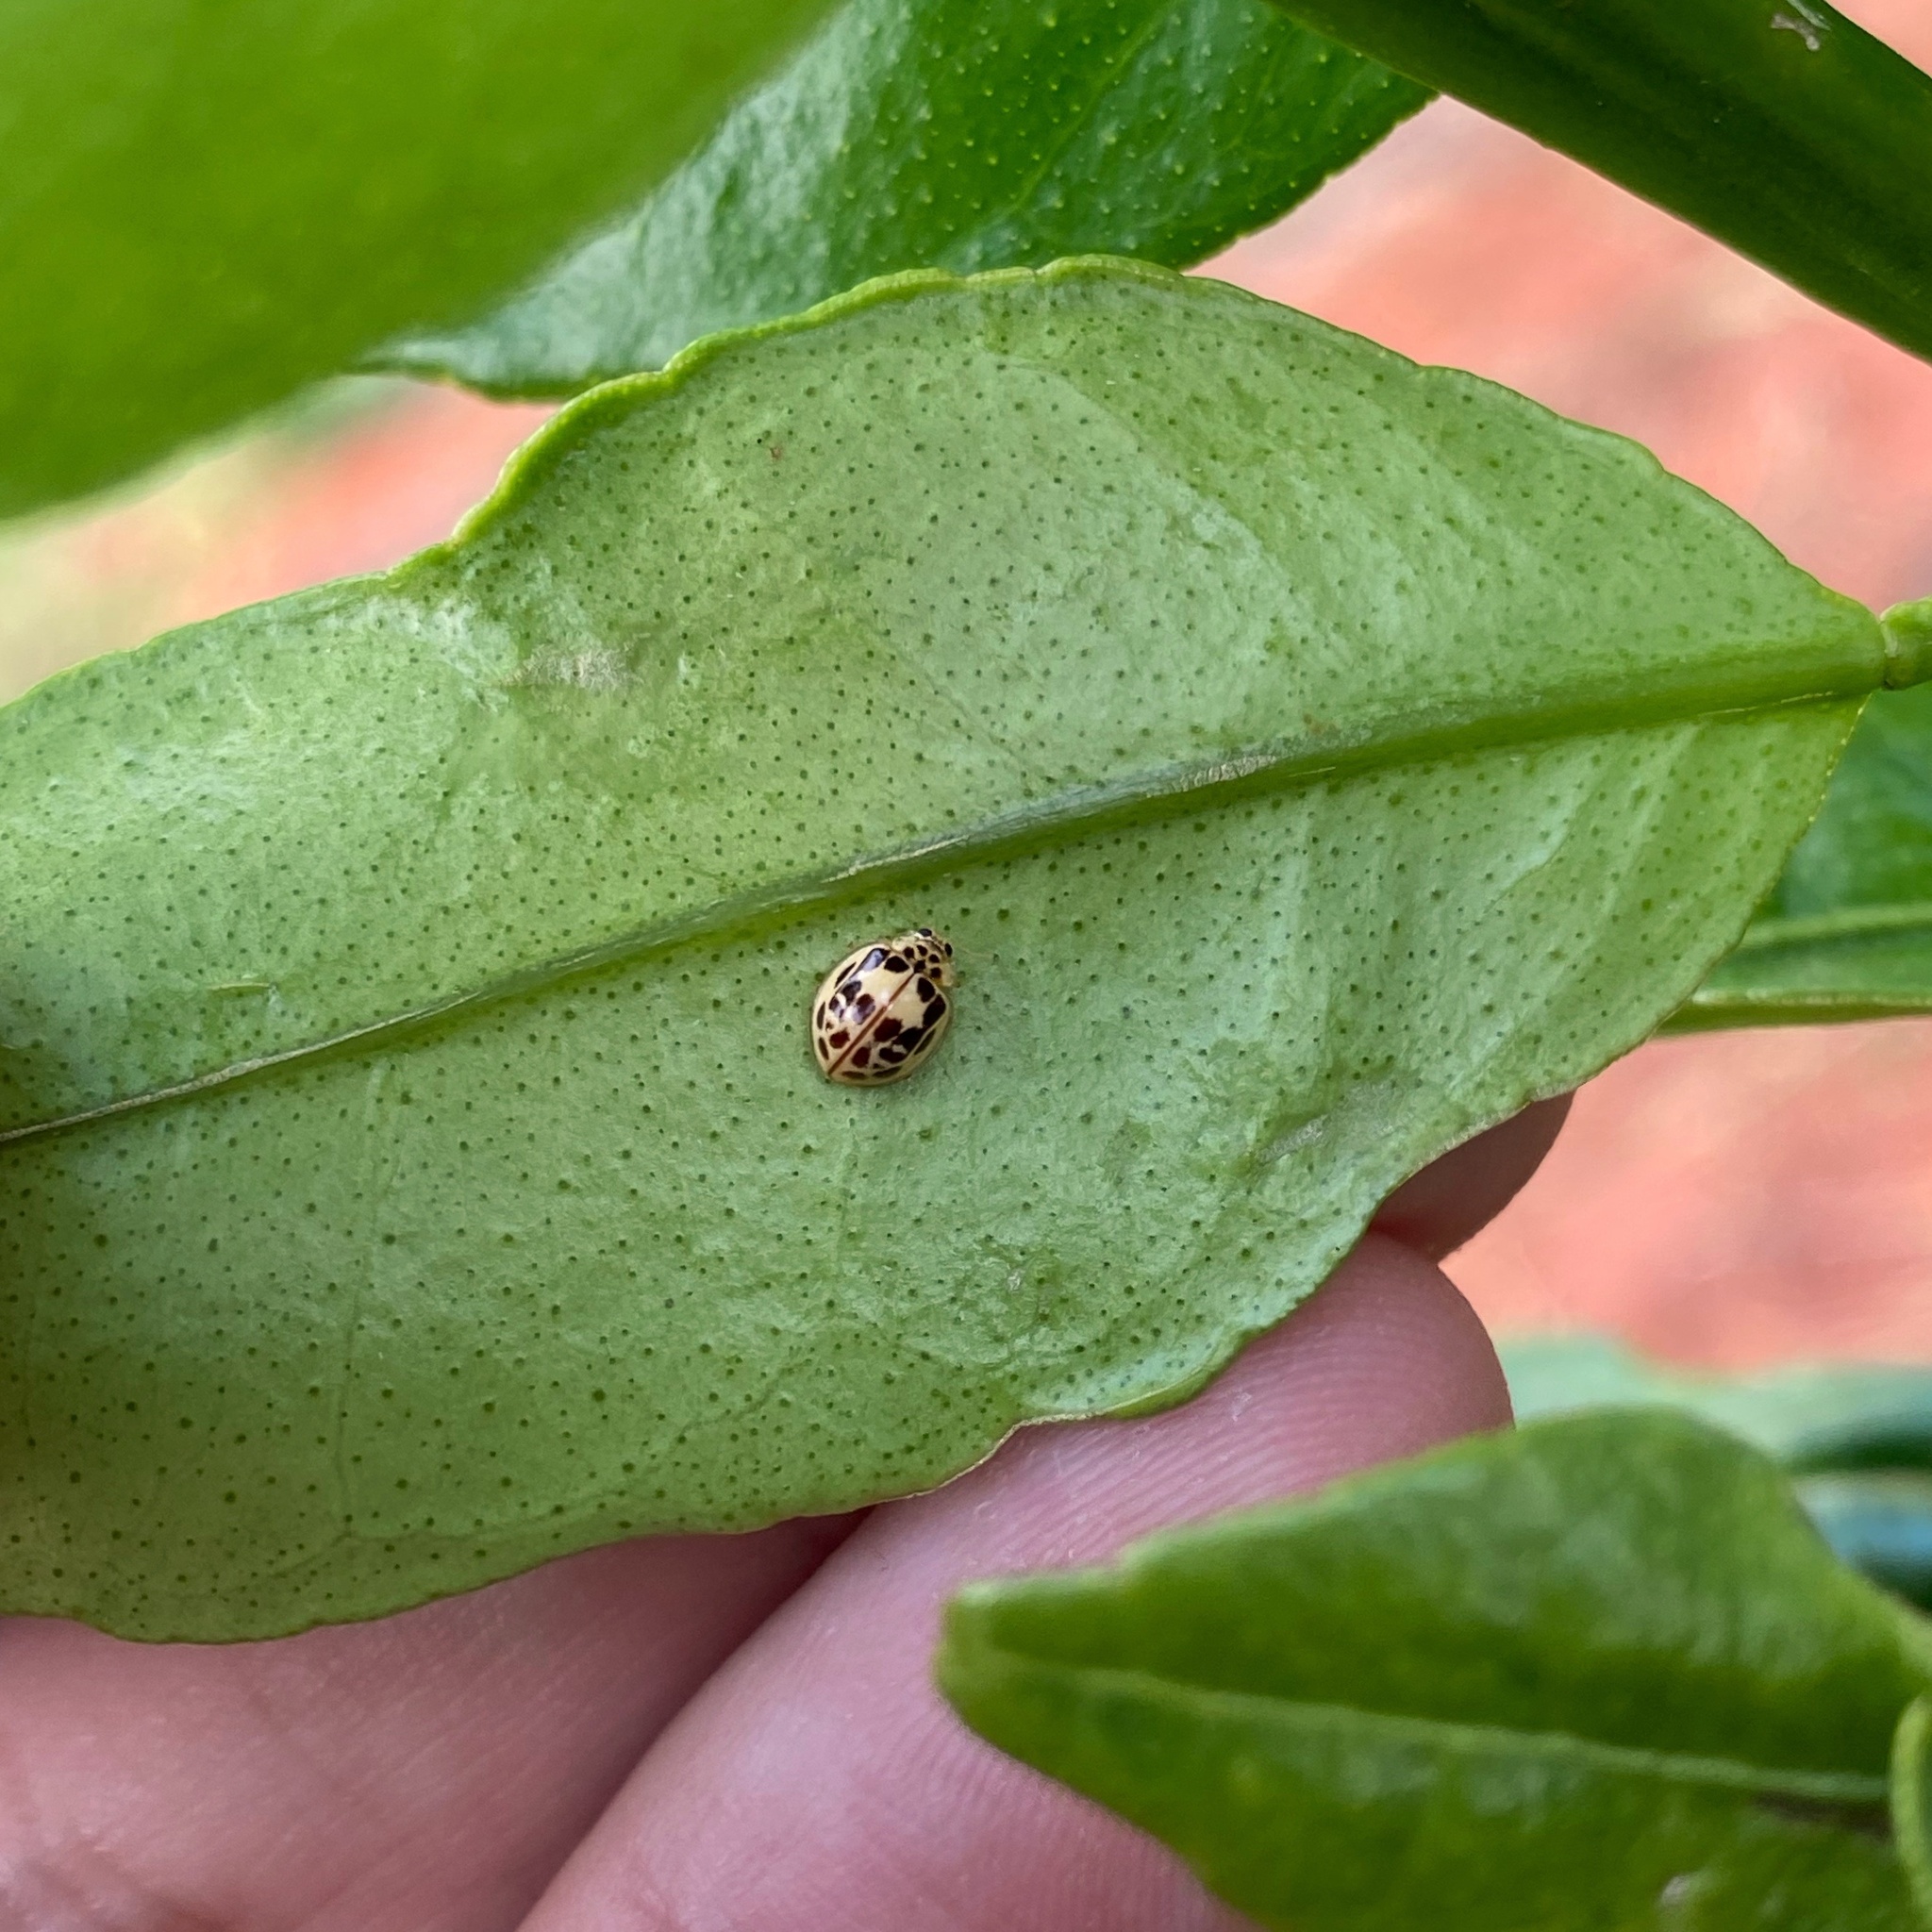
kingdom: Animalia
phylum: Arthropoda
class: Insecta
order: Coleoptera
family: Coccinellidae
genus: Psyllobora
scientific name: Psyllobora confluens
